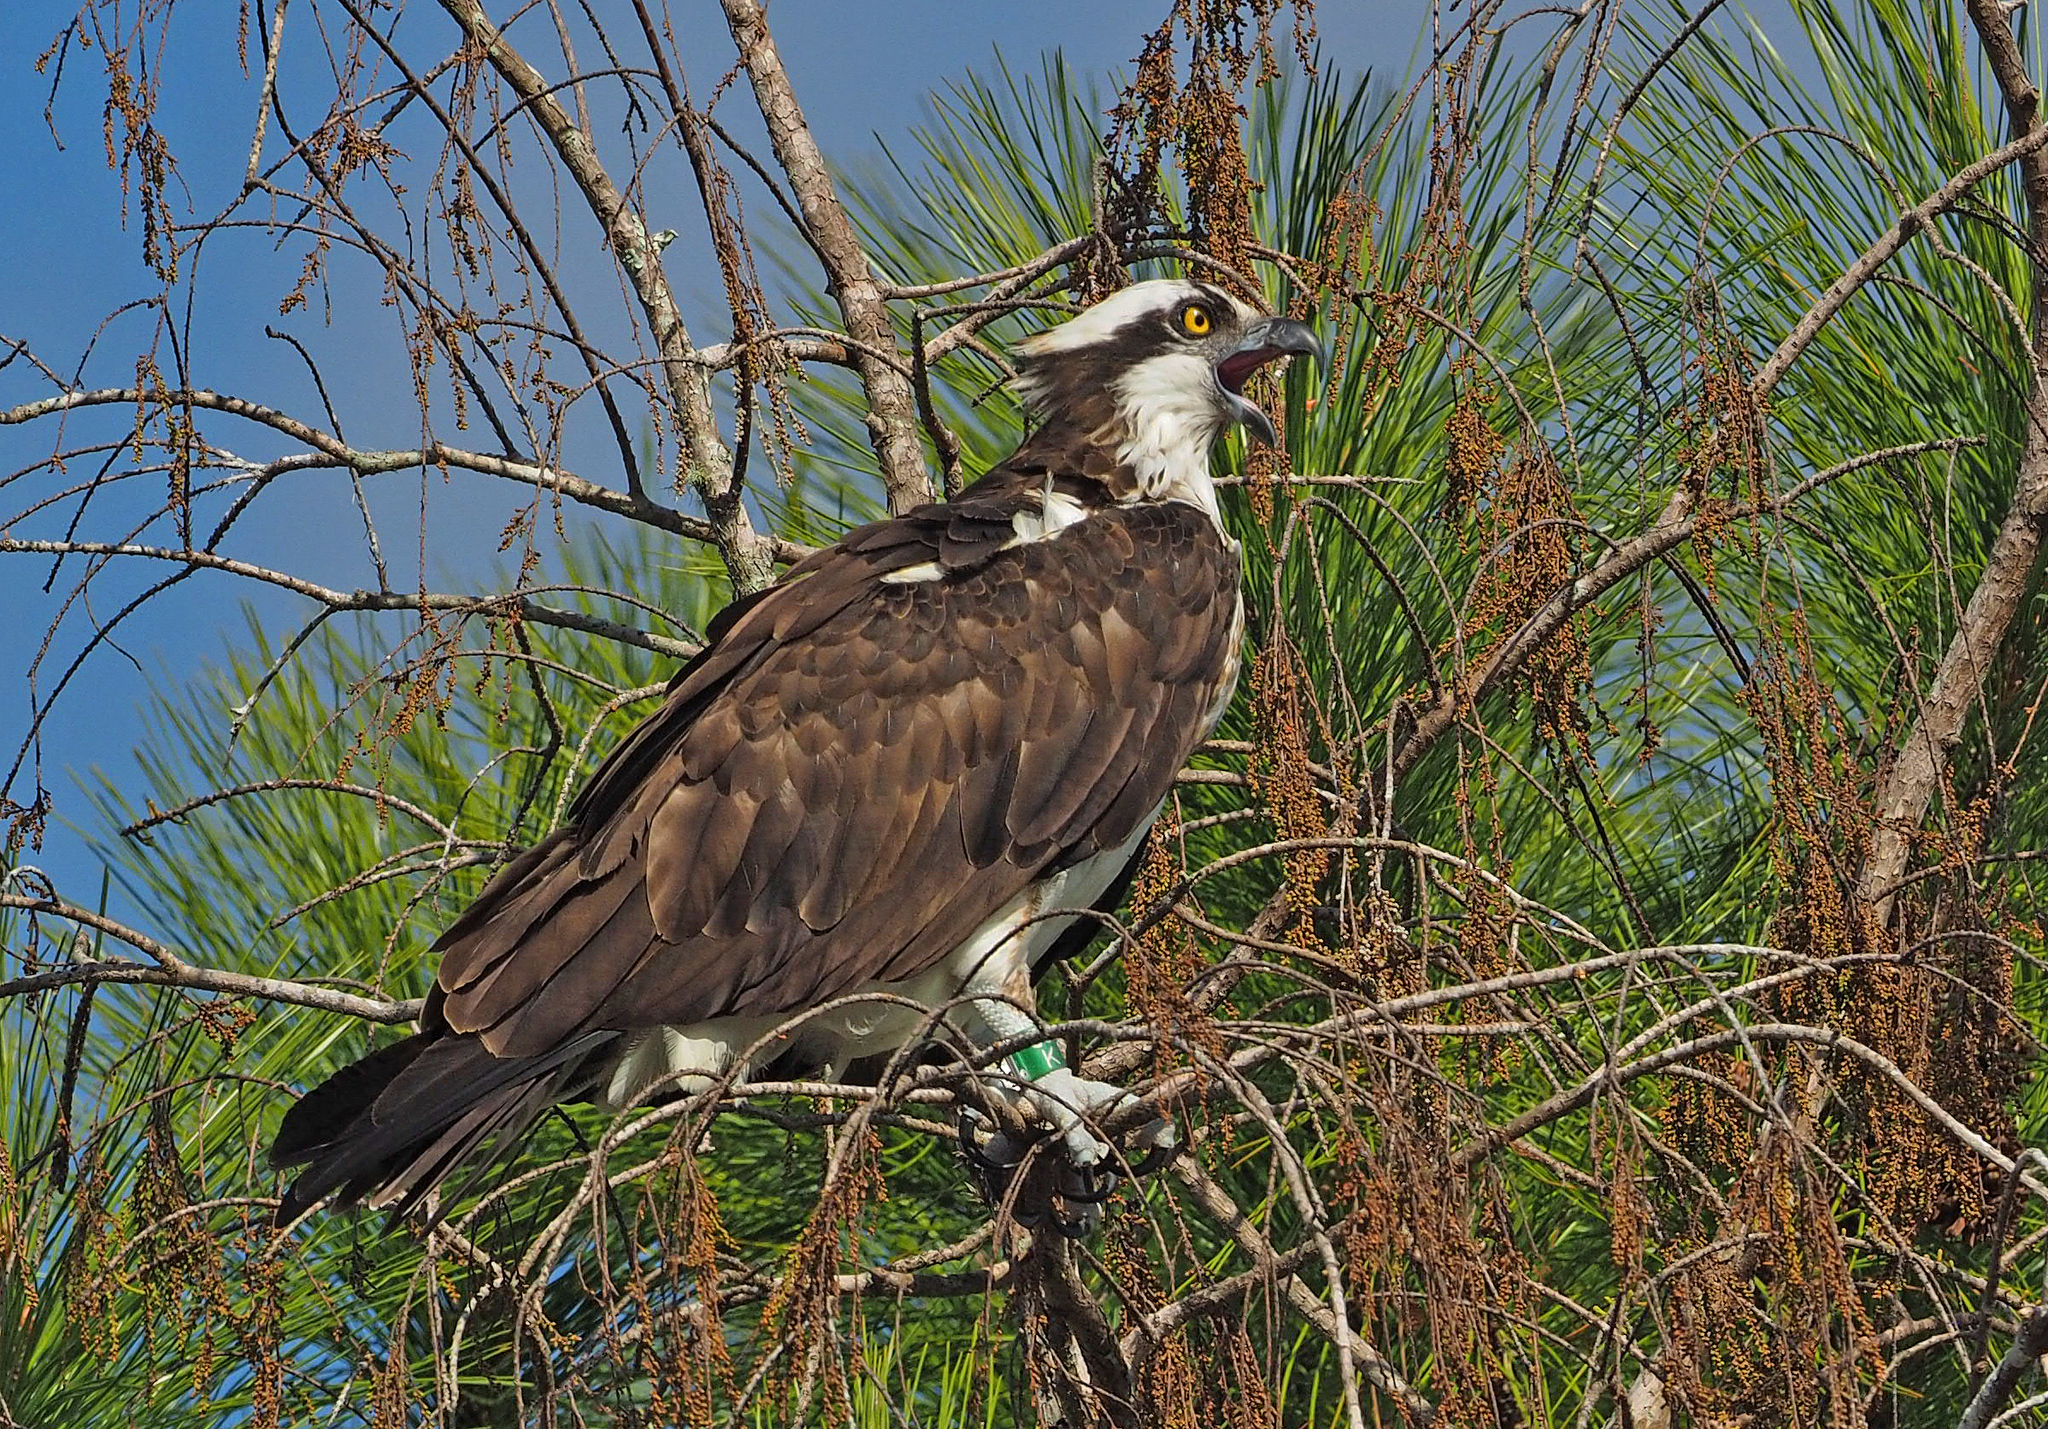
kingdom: Animalia
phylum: Chordata
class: Aves
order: Accipitriformes
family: Pandionidae
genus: Pandion
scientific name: Pandion haliaetus
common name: Osprey
